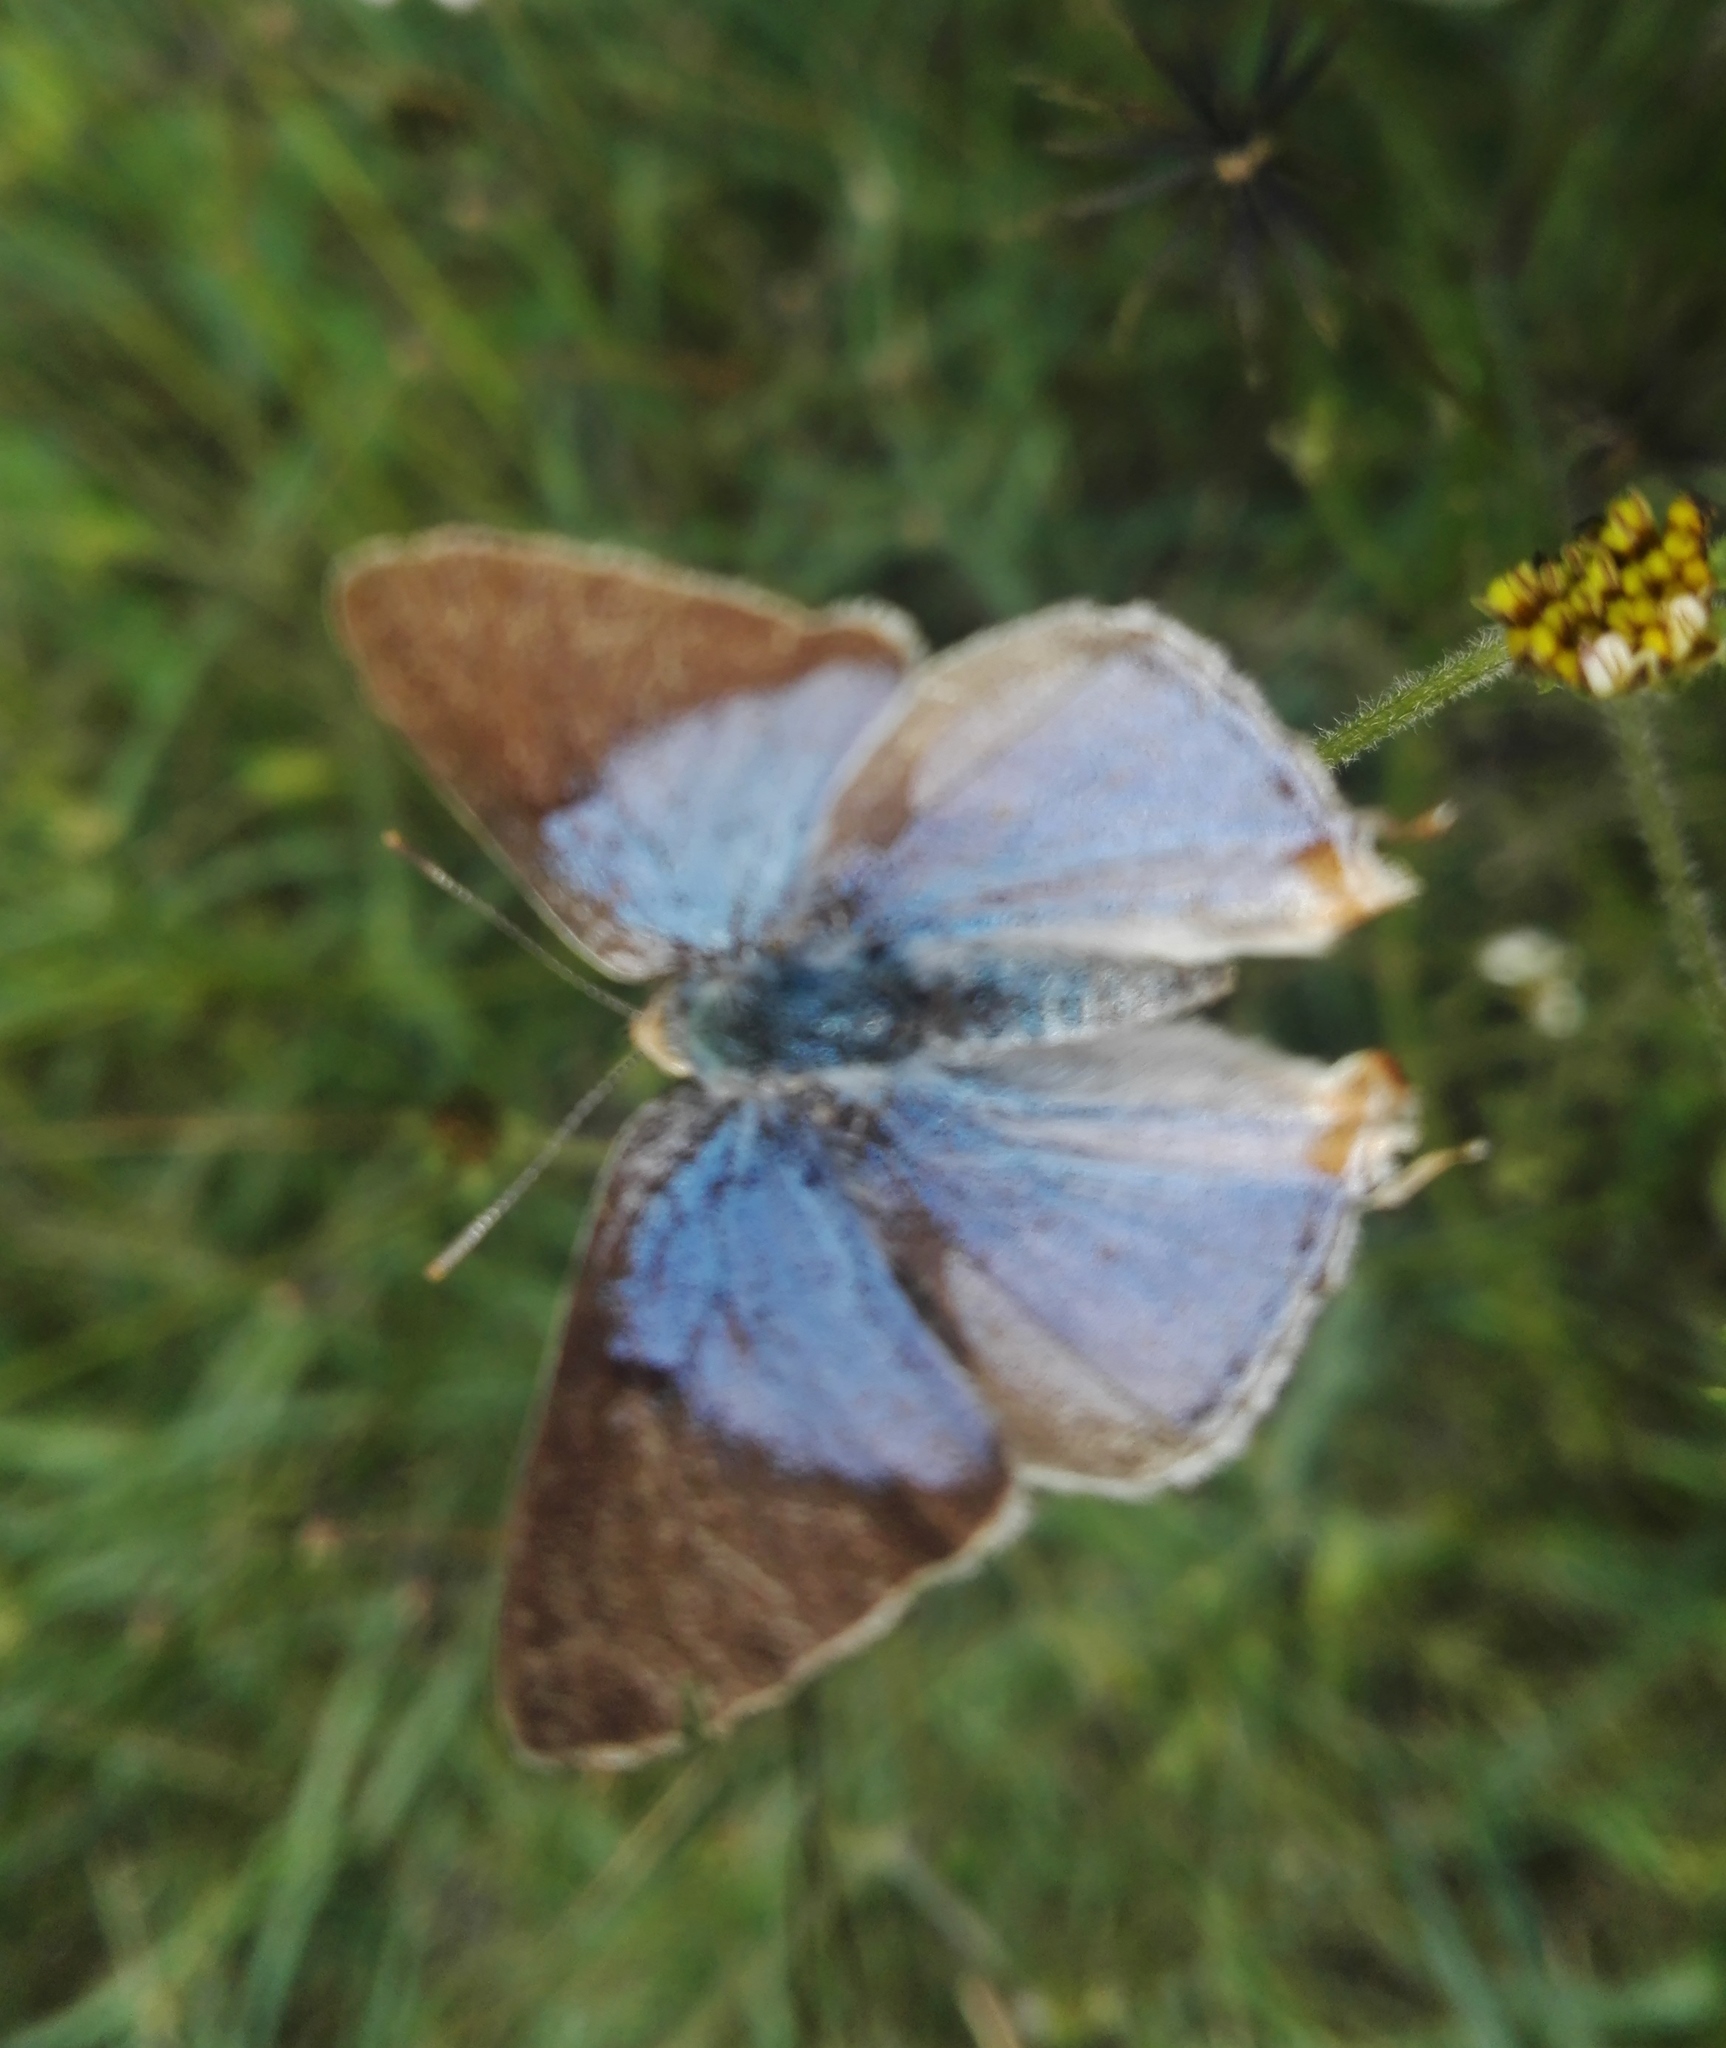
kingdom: Animalia
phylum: Arthropoda
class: Insecta
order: Lepidoptera
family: Lycaenidae
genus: Dolymorpha
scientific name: Dolymorpha jada
